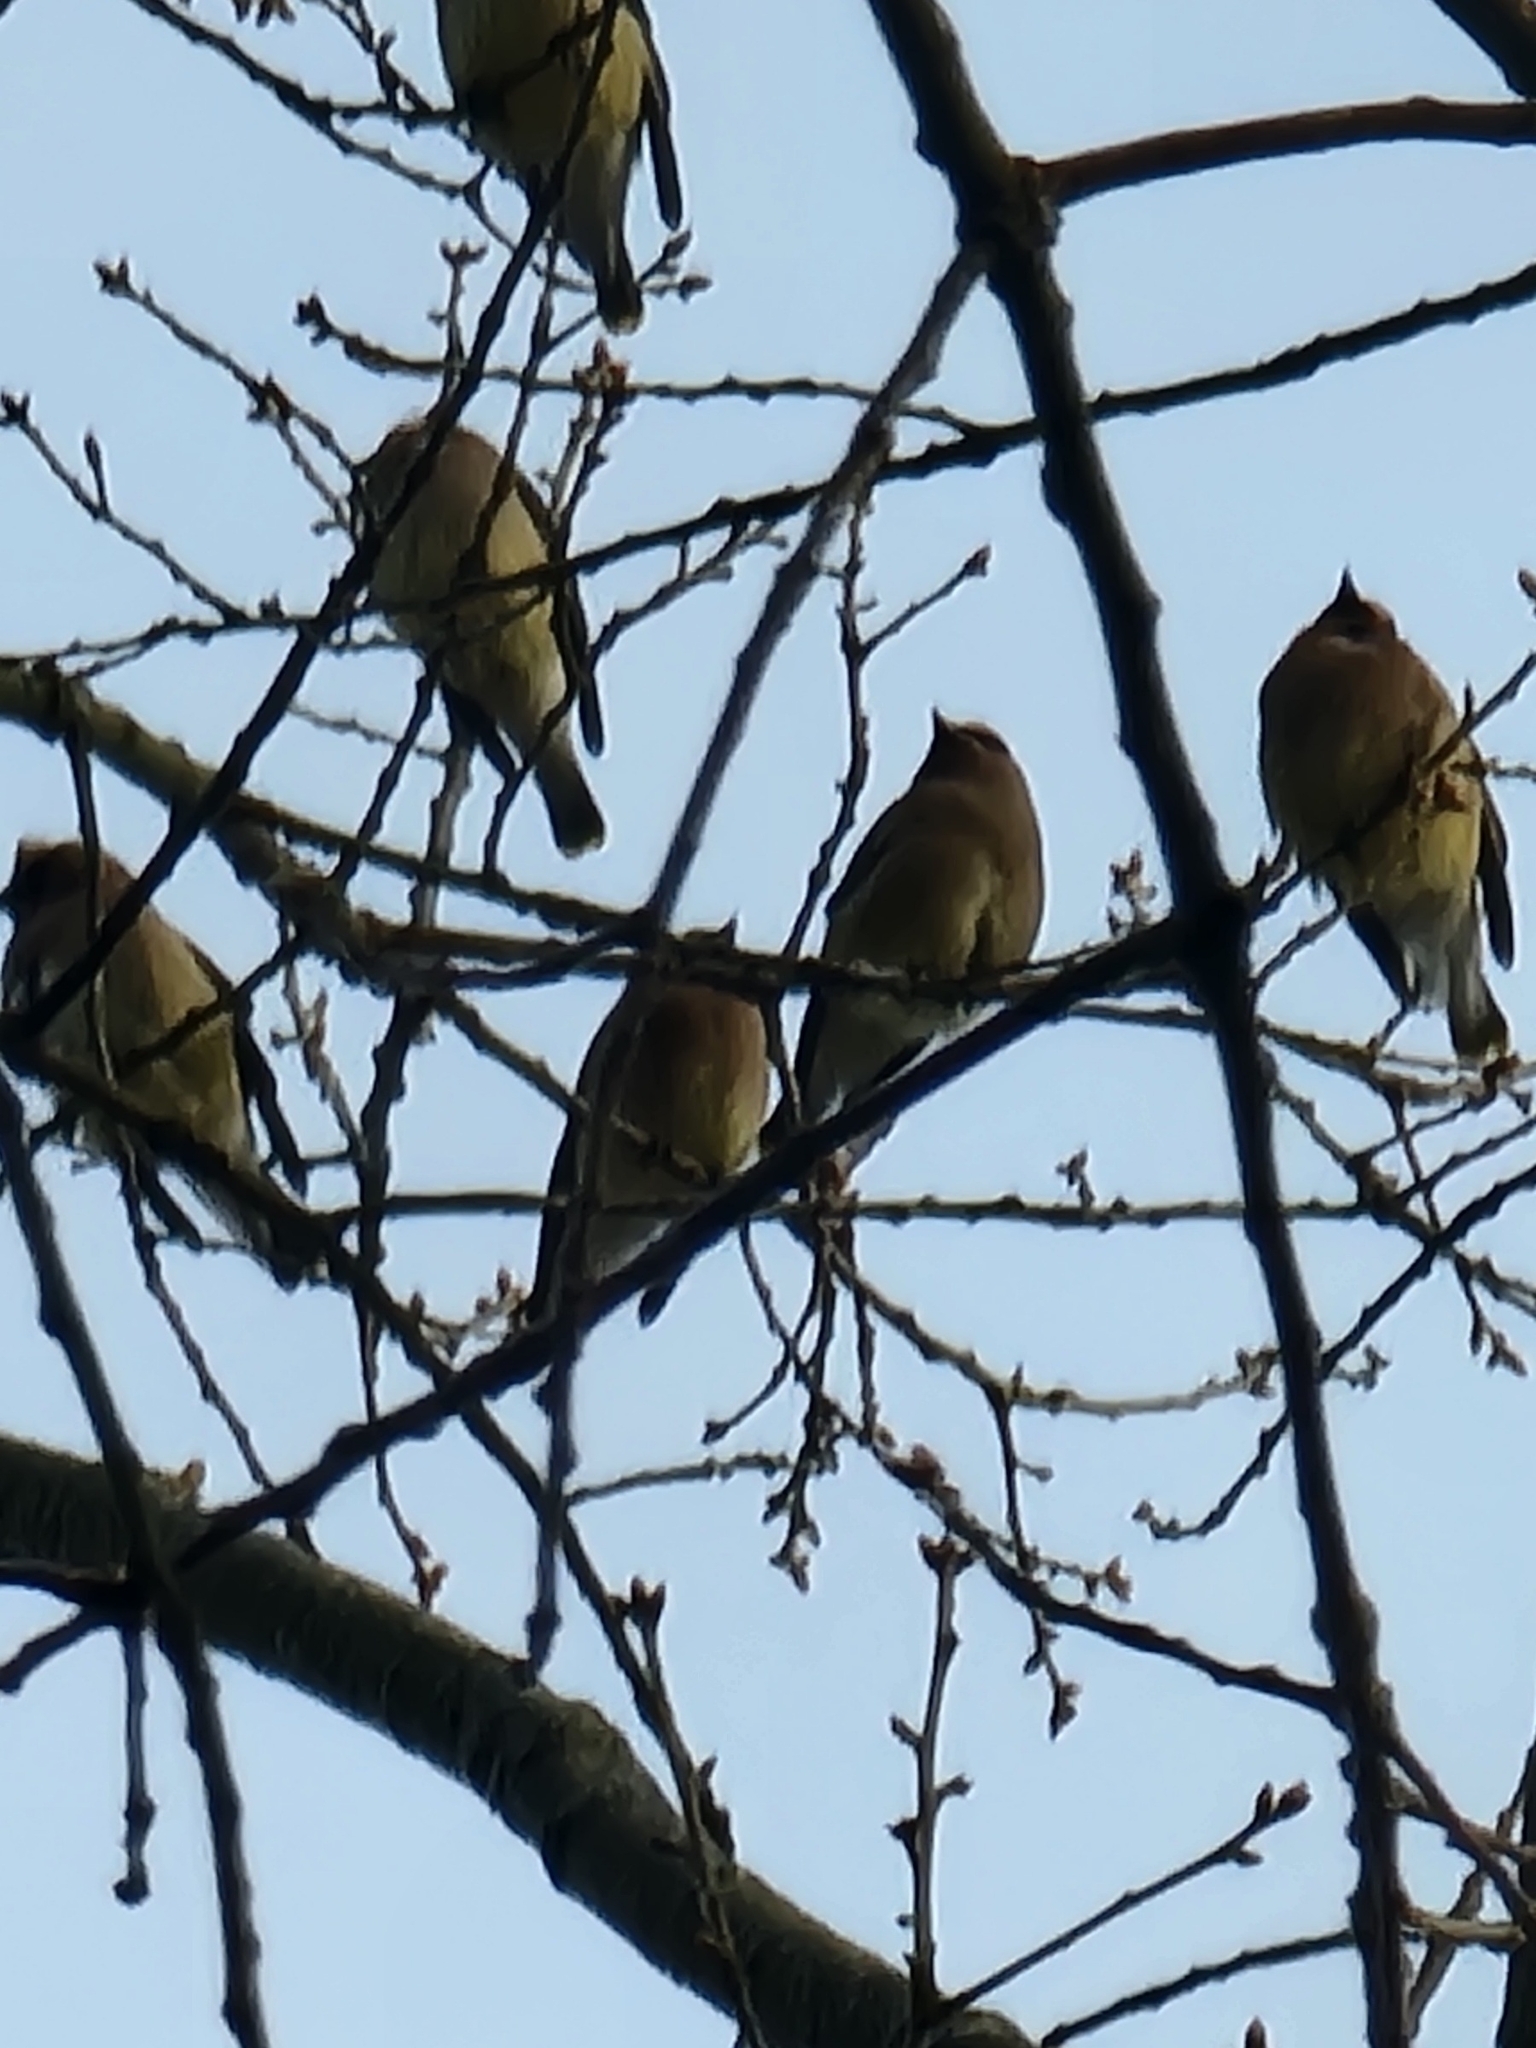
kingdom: Animalia
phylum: Chordata
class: Aves
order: Passeriformes
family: Bombycillidae
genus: Bombycilla
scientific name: Bombycilla cedrorum
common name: Cedar waxwing
